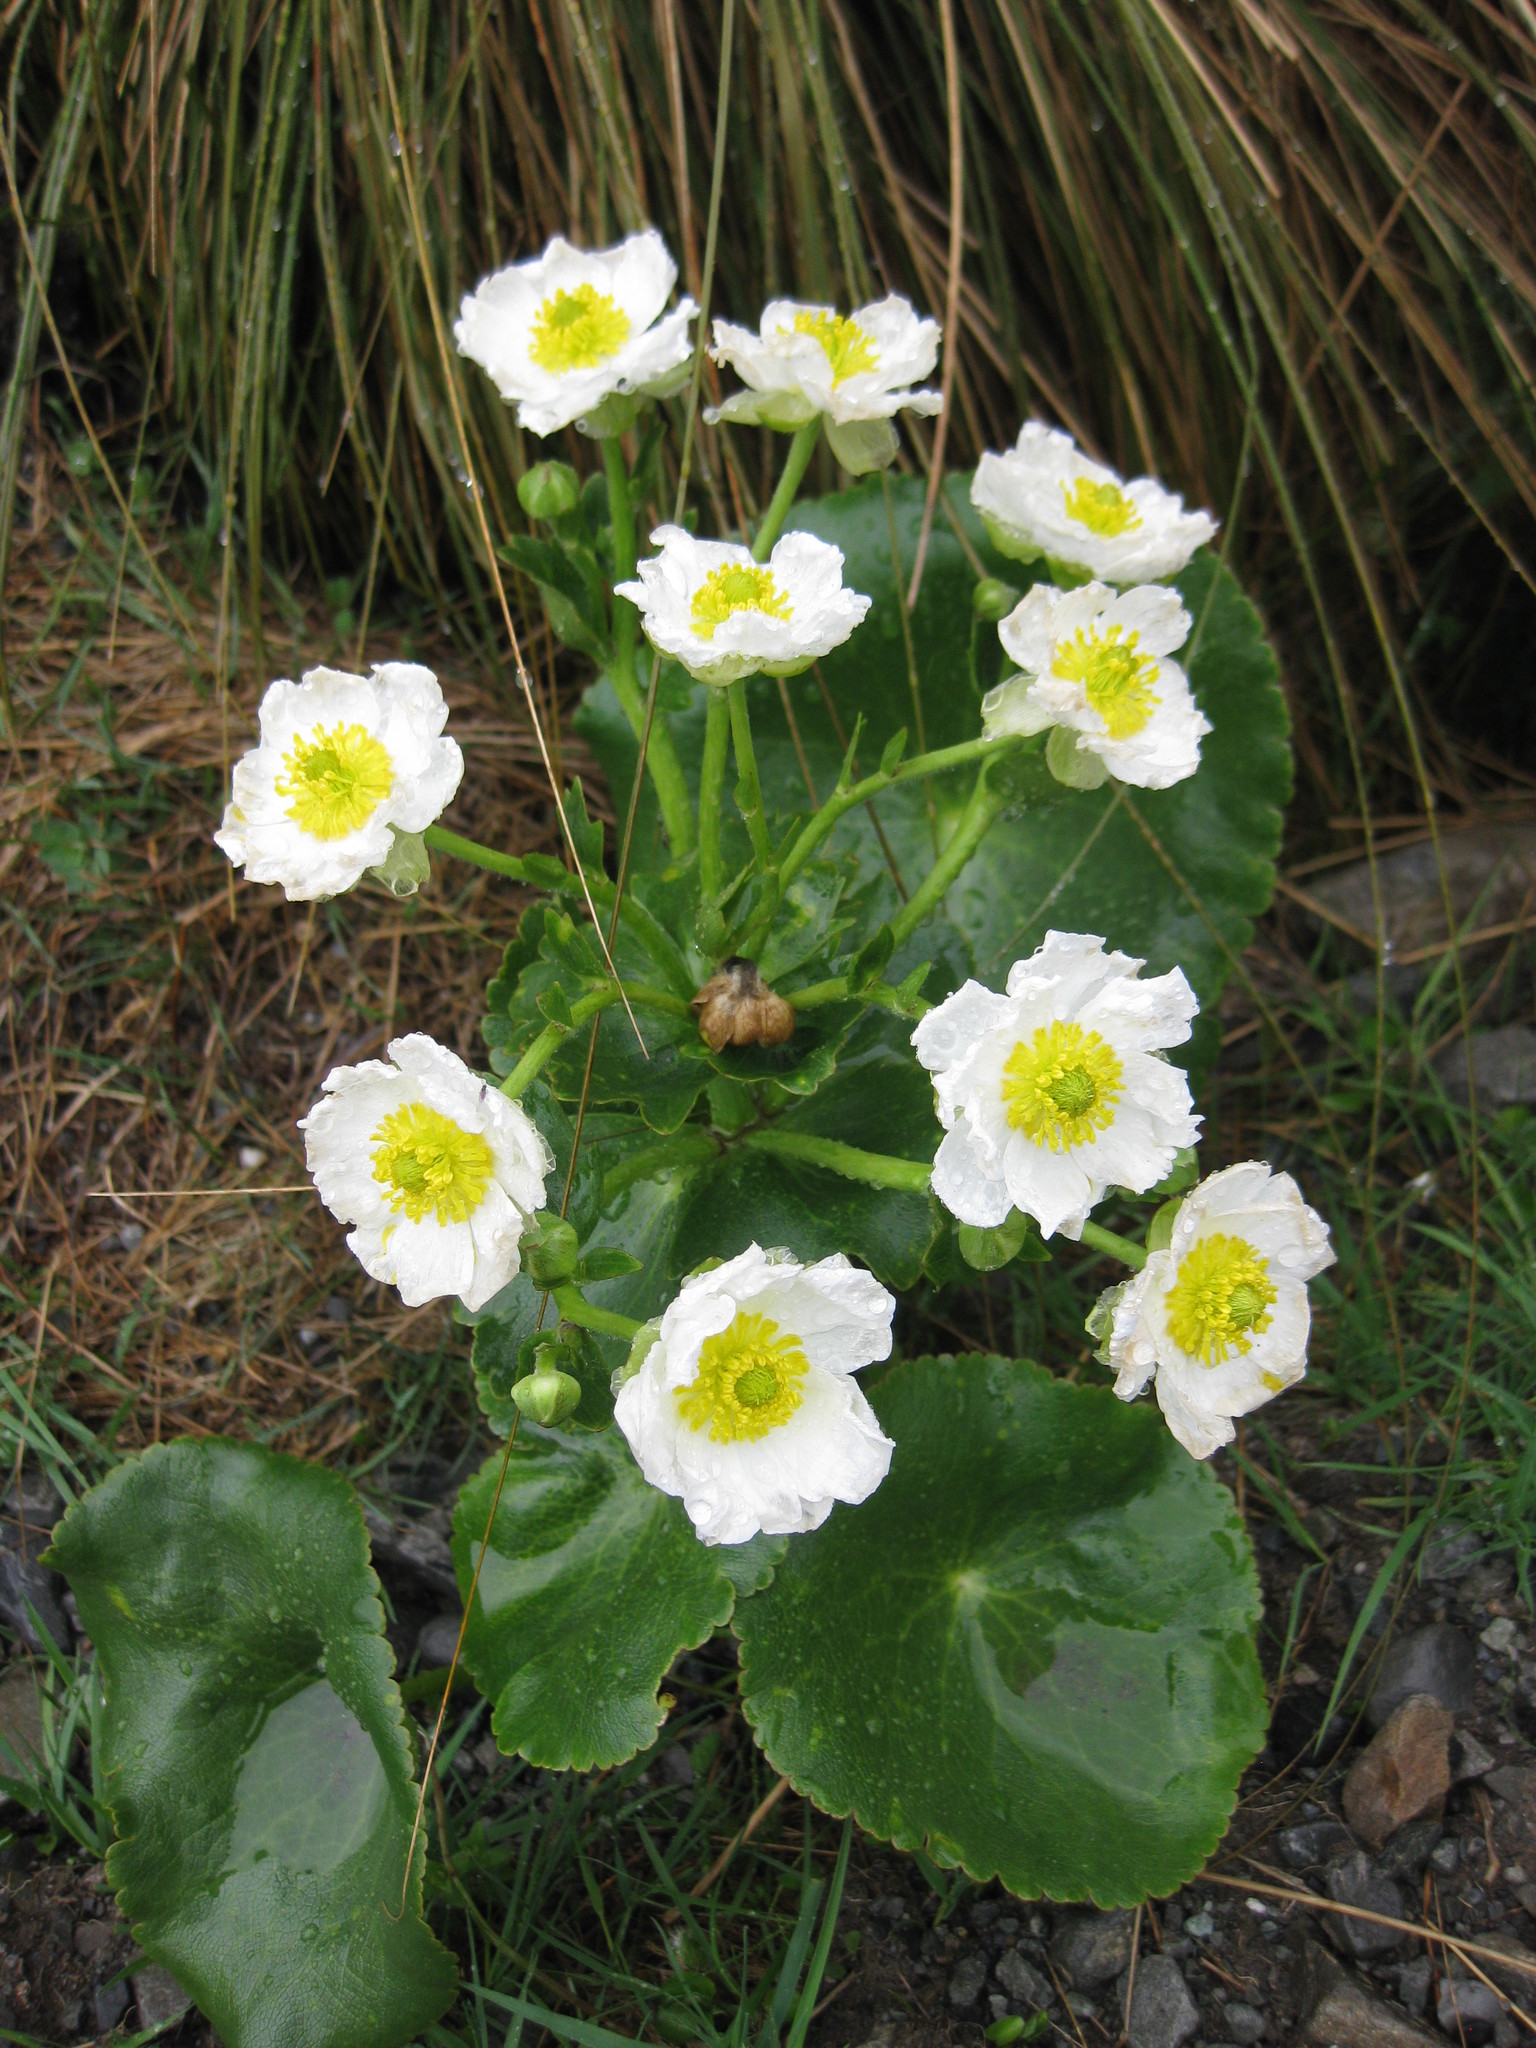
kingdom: Plantae
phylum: Tracheophyta
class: Magnoliopsida
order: Ranunculales
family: Ranunculaceae
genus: Ranunculus
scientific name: Ranunculus lyallii
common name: Mountain-lily
